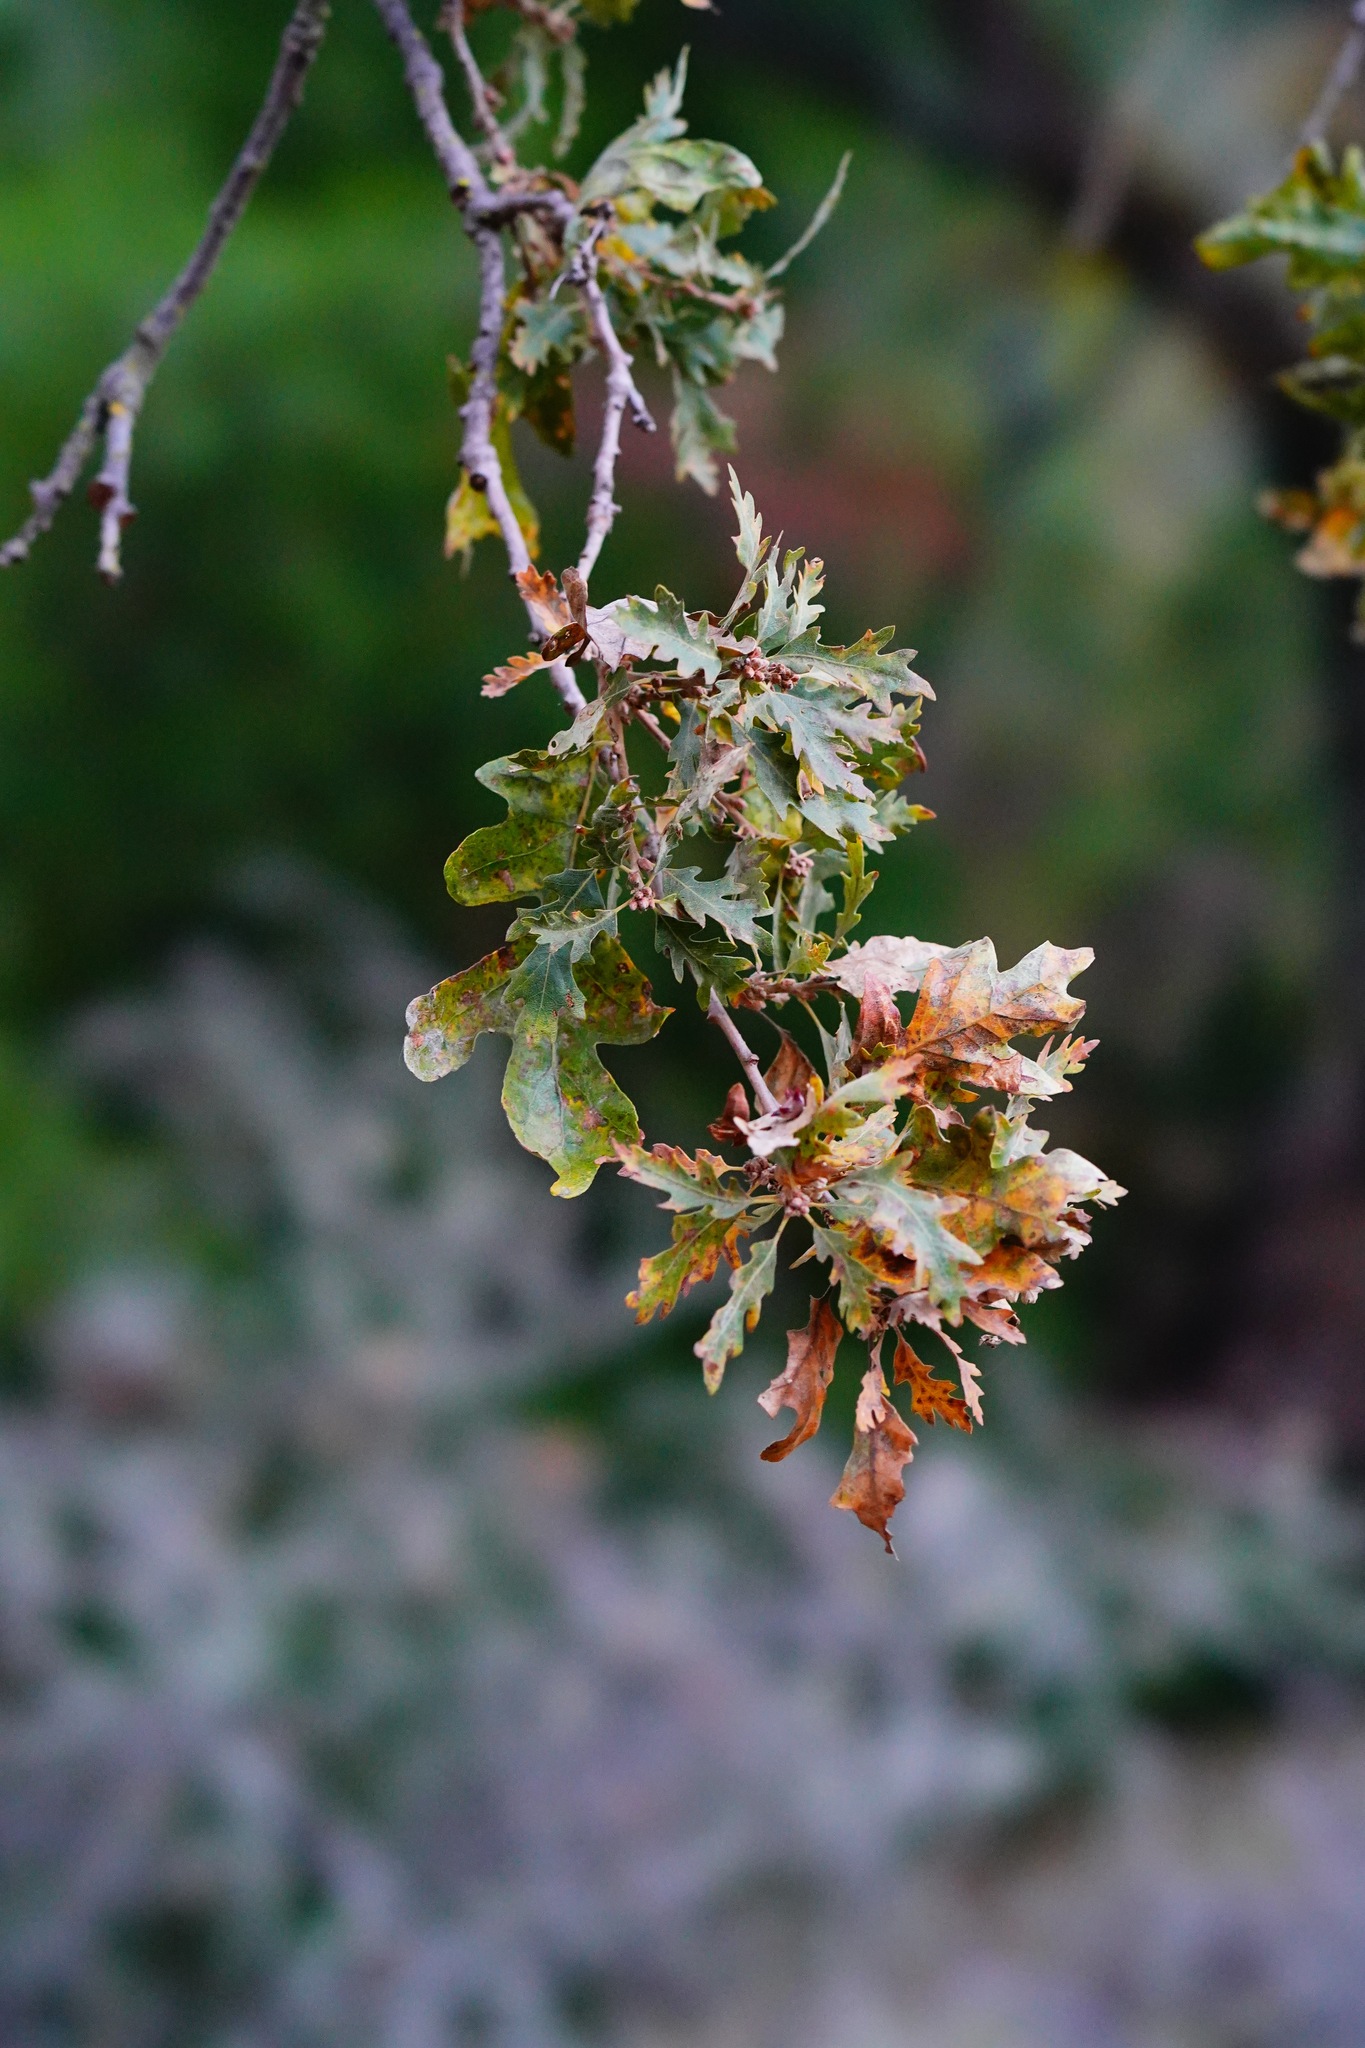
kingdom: Plantae
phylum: Tracheophyta
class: Magnoliopsida
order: Fagales
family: Fagaceae
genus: Quercus
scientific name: Quercus lobata
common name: Valley oak
